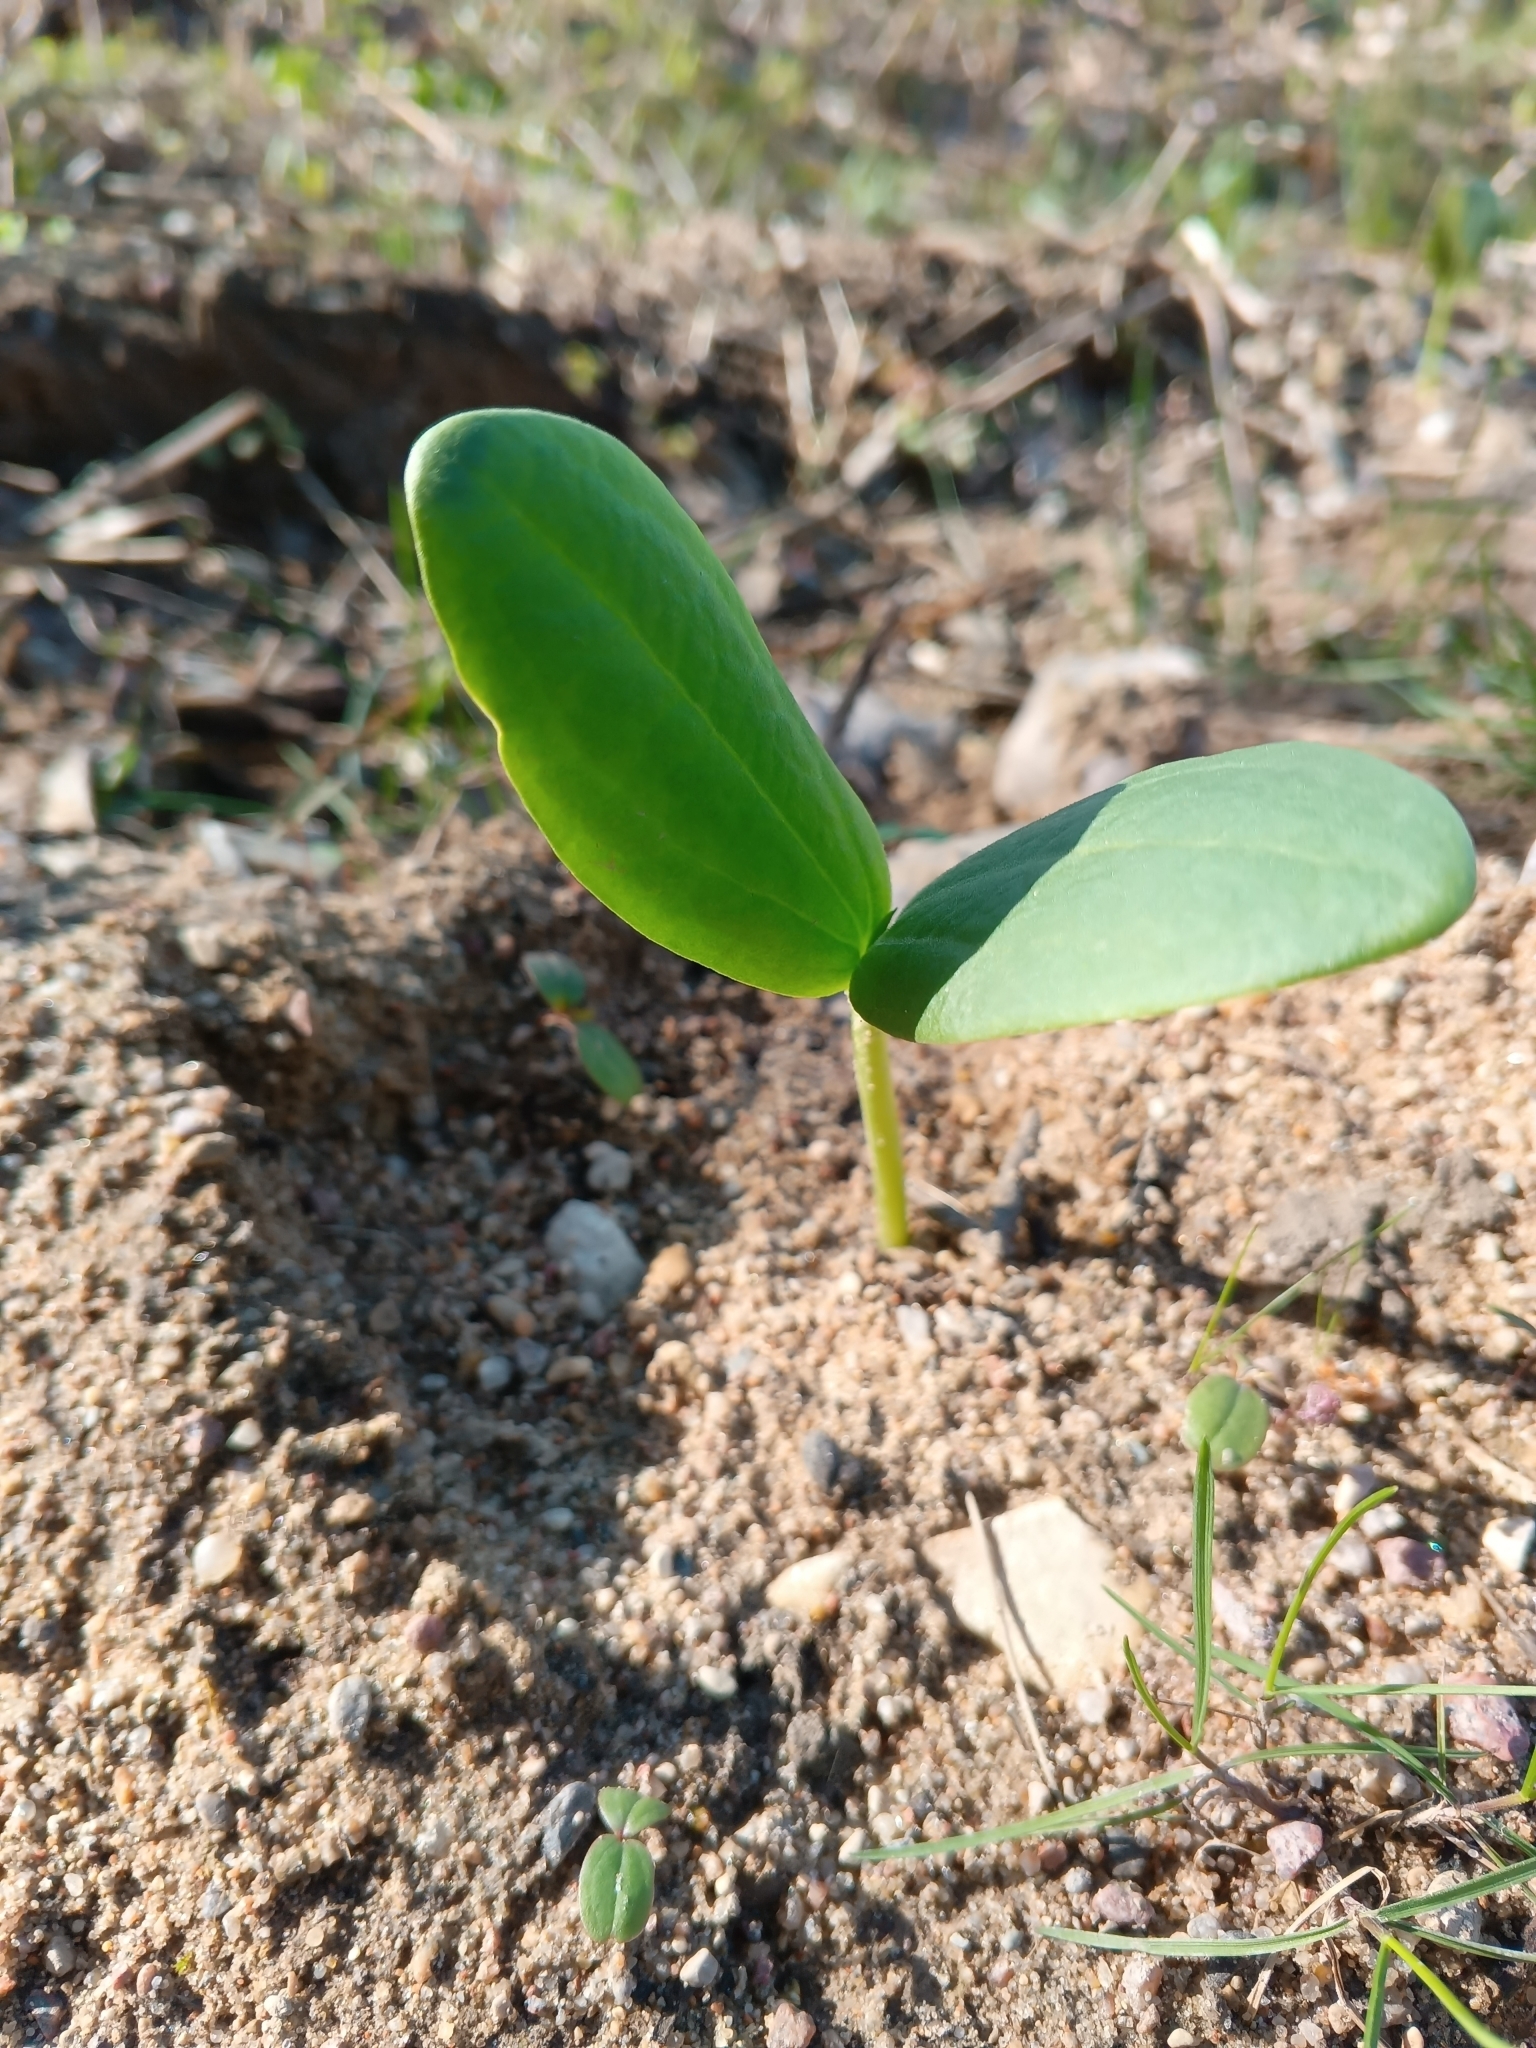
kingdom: Plantae
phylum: Tracheophyta
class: Magnoliopsida
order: Cucurbitales
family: Cucurbitaceae
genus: Echinocystis
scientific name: Echinocystis lobata
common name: Wild cucumber
